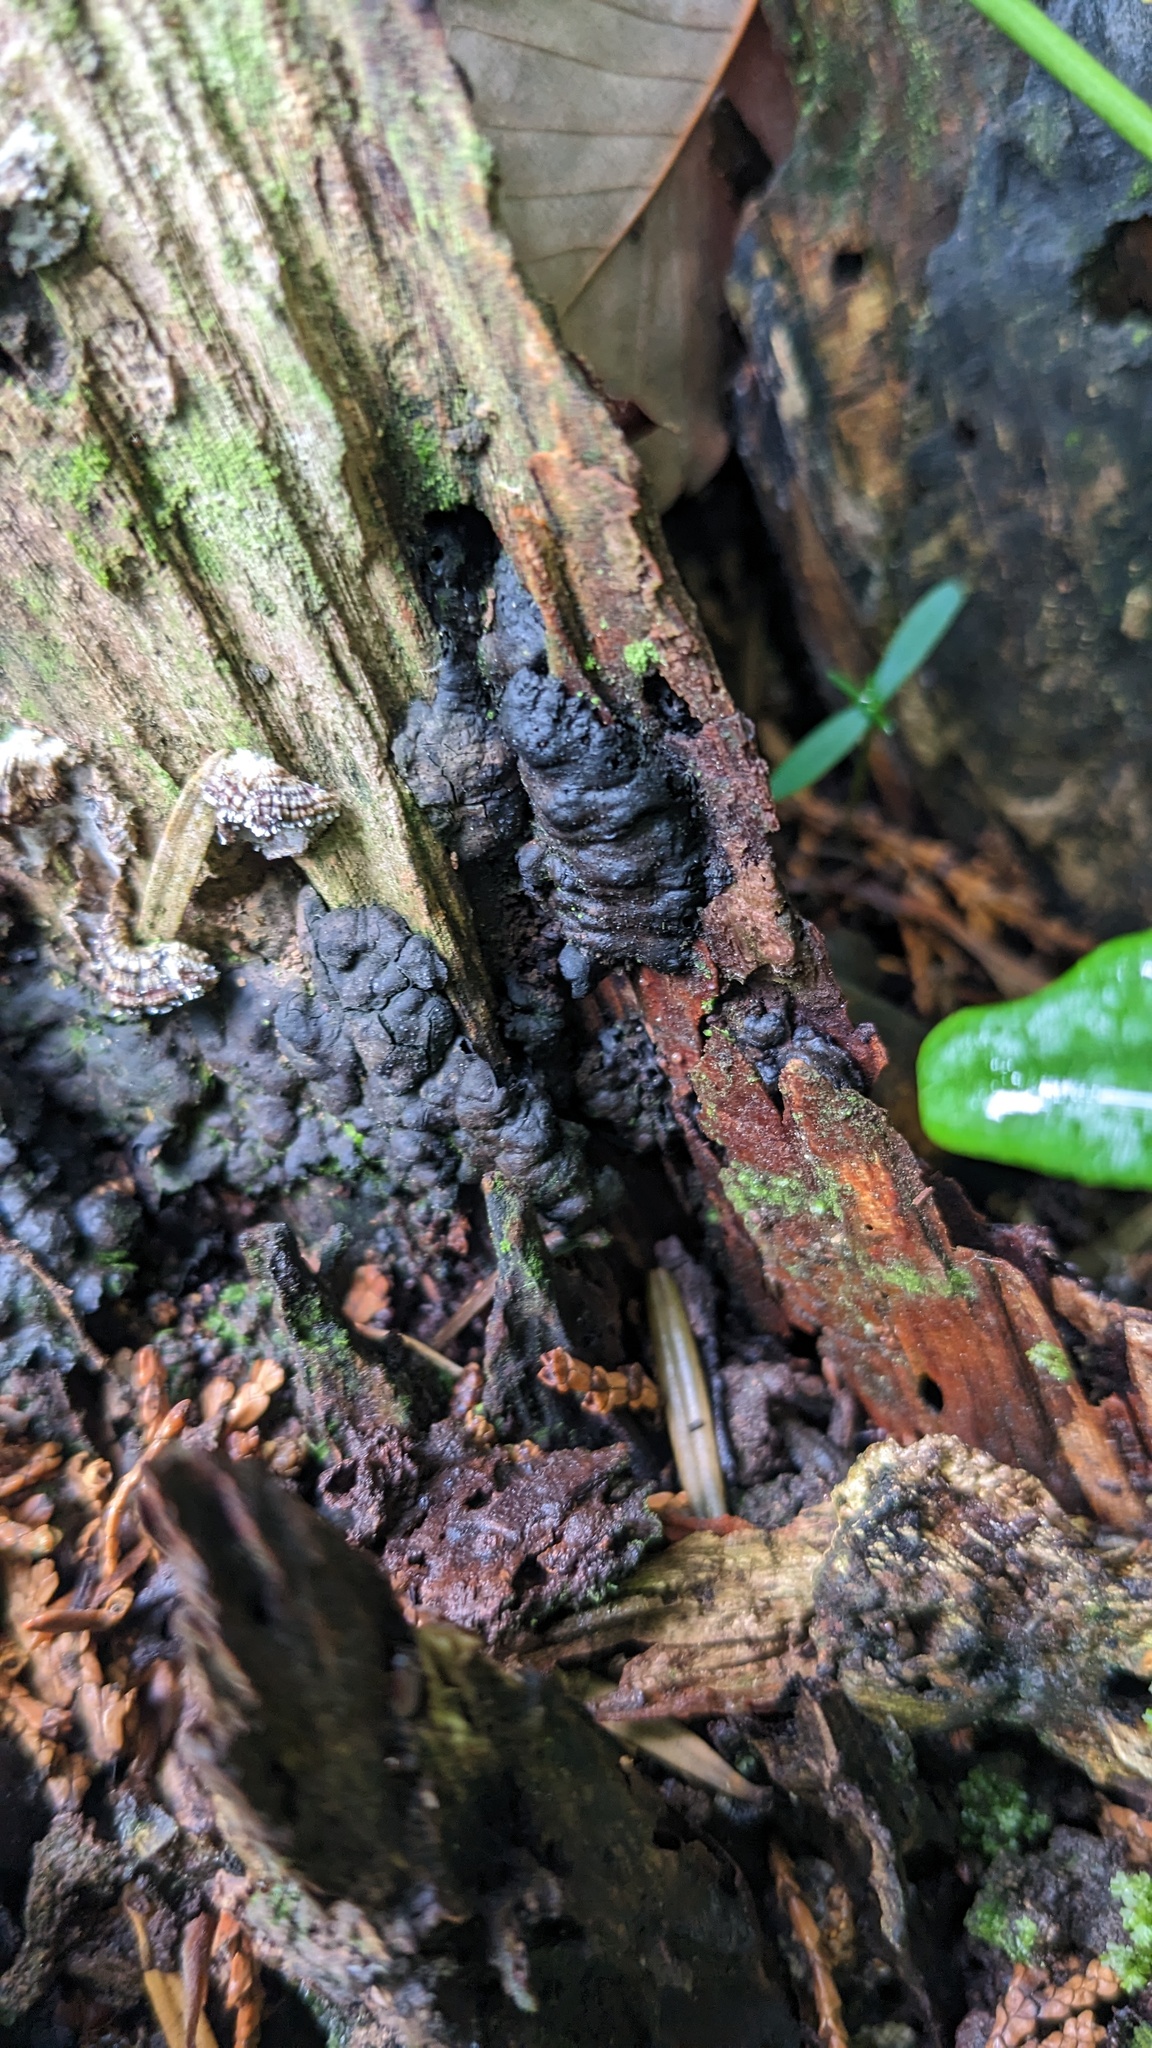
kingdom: Fungi
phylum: Ascomycota
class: Sordariomycetes
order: Xylariales
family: Xylariaceae
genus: Kretzschmaria
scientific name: Kretzschmaria deusta
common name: Brittle cinder
